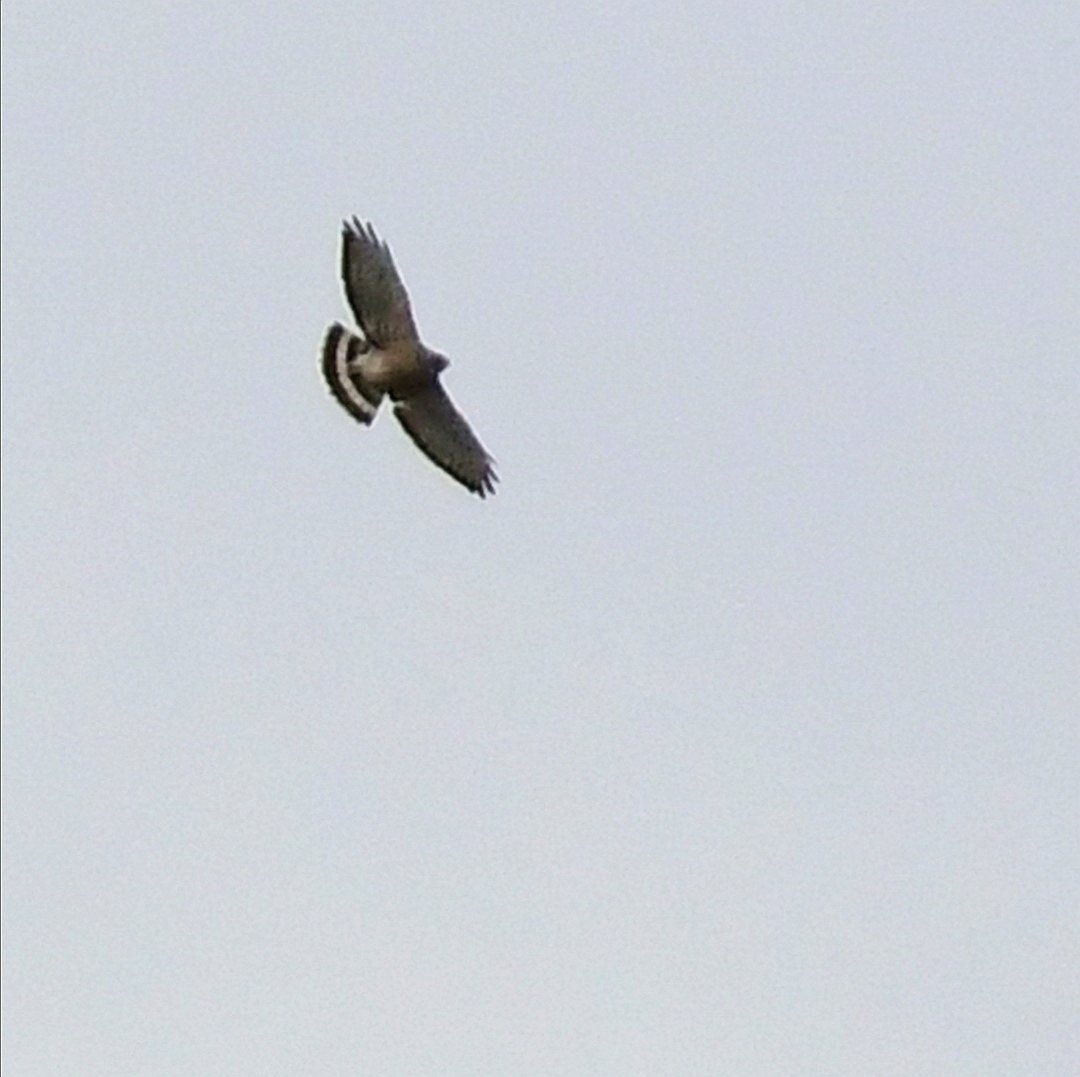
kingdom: Animalia
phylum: Chordata
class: Aves
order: Accipitriformes
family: Accipitridae
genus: Buteo
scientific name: Buteo platypterus
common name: Broad-winged hawk
